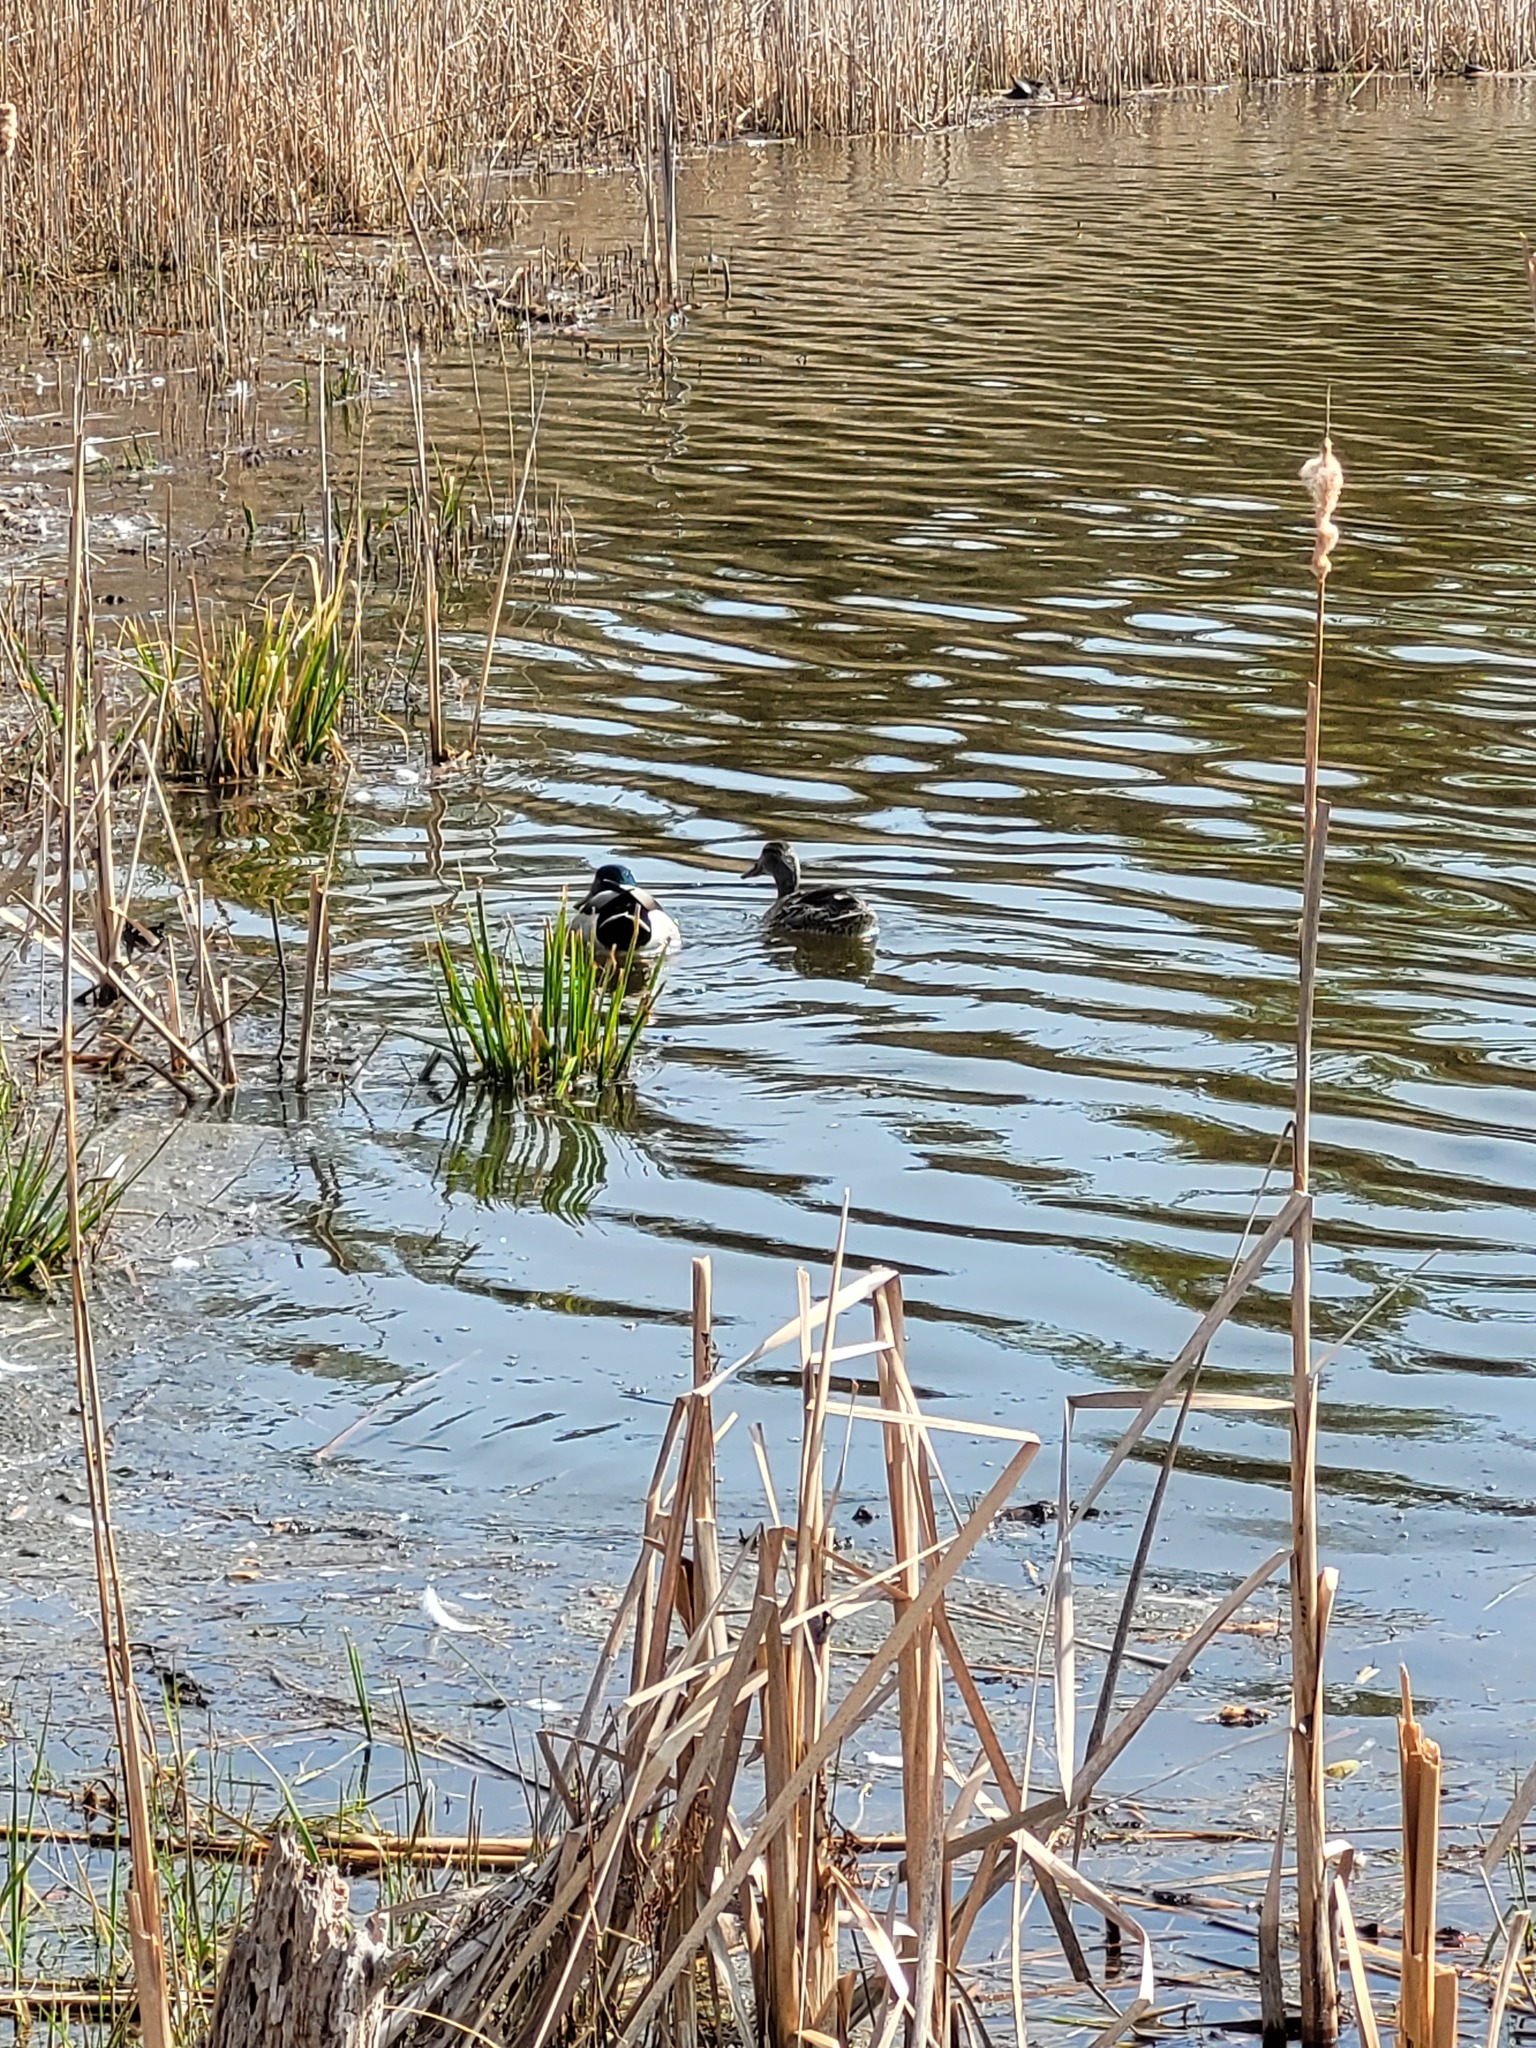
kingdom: Animalia
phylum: Chordata
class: Aves
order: Anseriformes
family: Anatidae
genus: Anas
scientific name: Anas platyrhynchos
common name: Mallard
